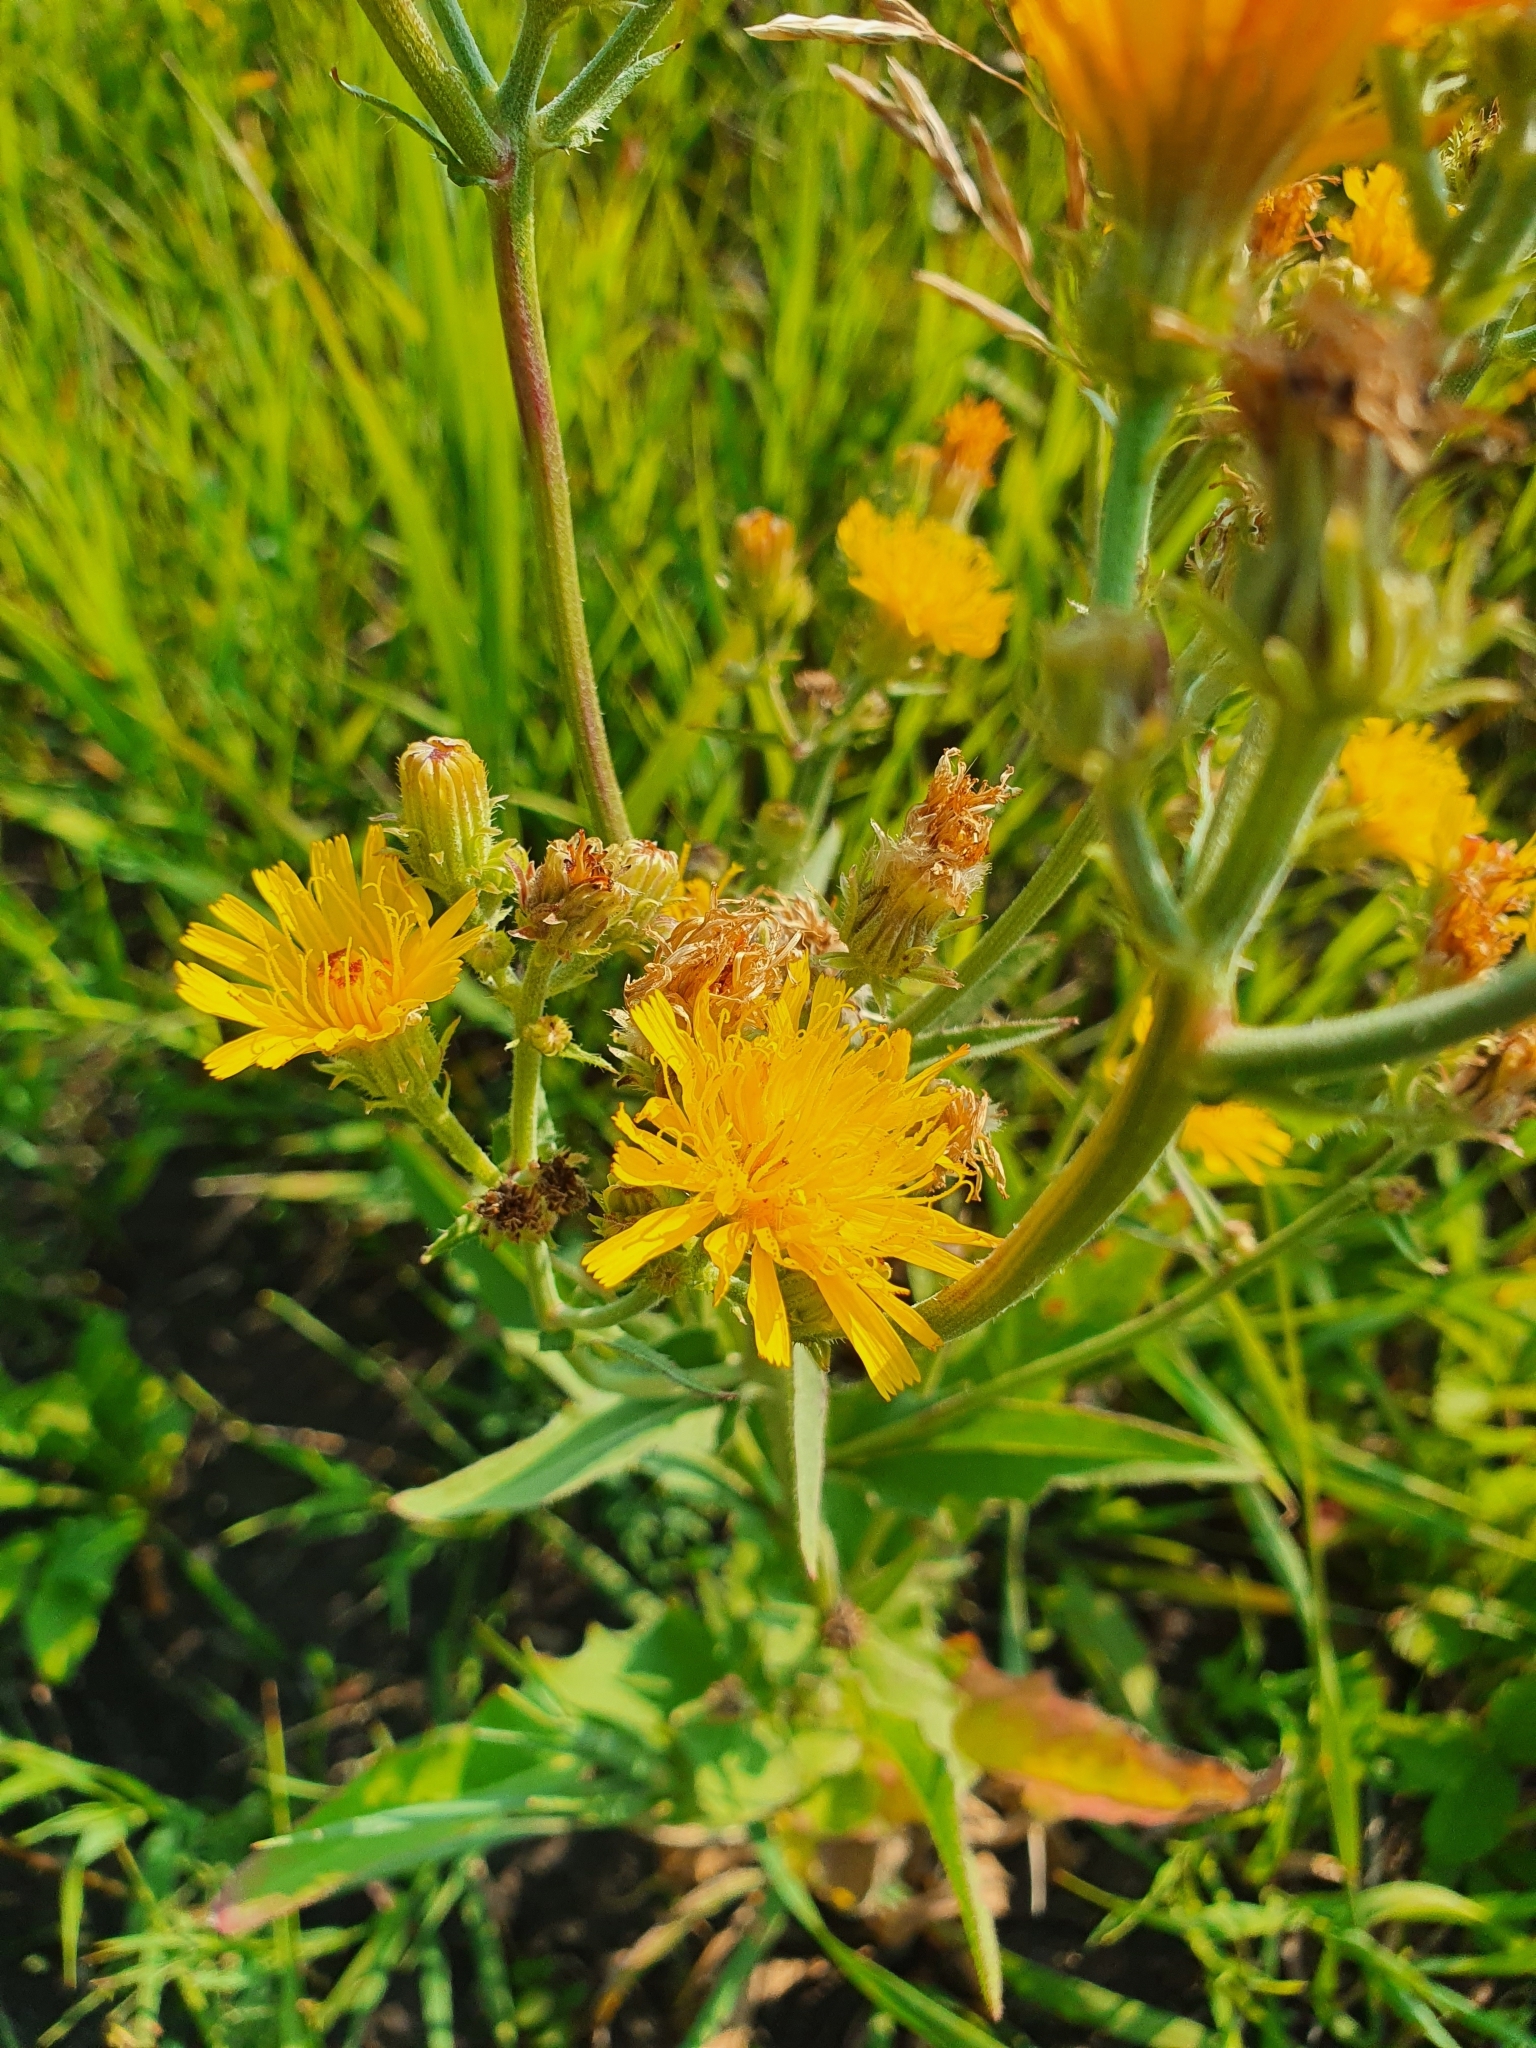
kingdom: Plantae
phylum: Tracheophyta
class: Magnoliopsida
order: Asterales
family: Asteraceae
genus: Picris
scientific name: Picris hieracioides
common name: Hawkweed oxtongue
